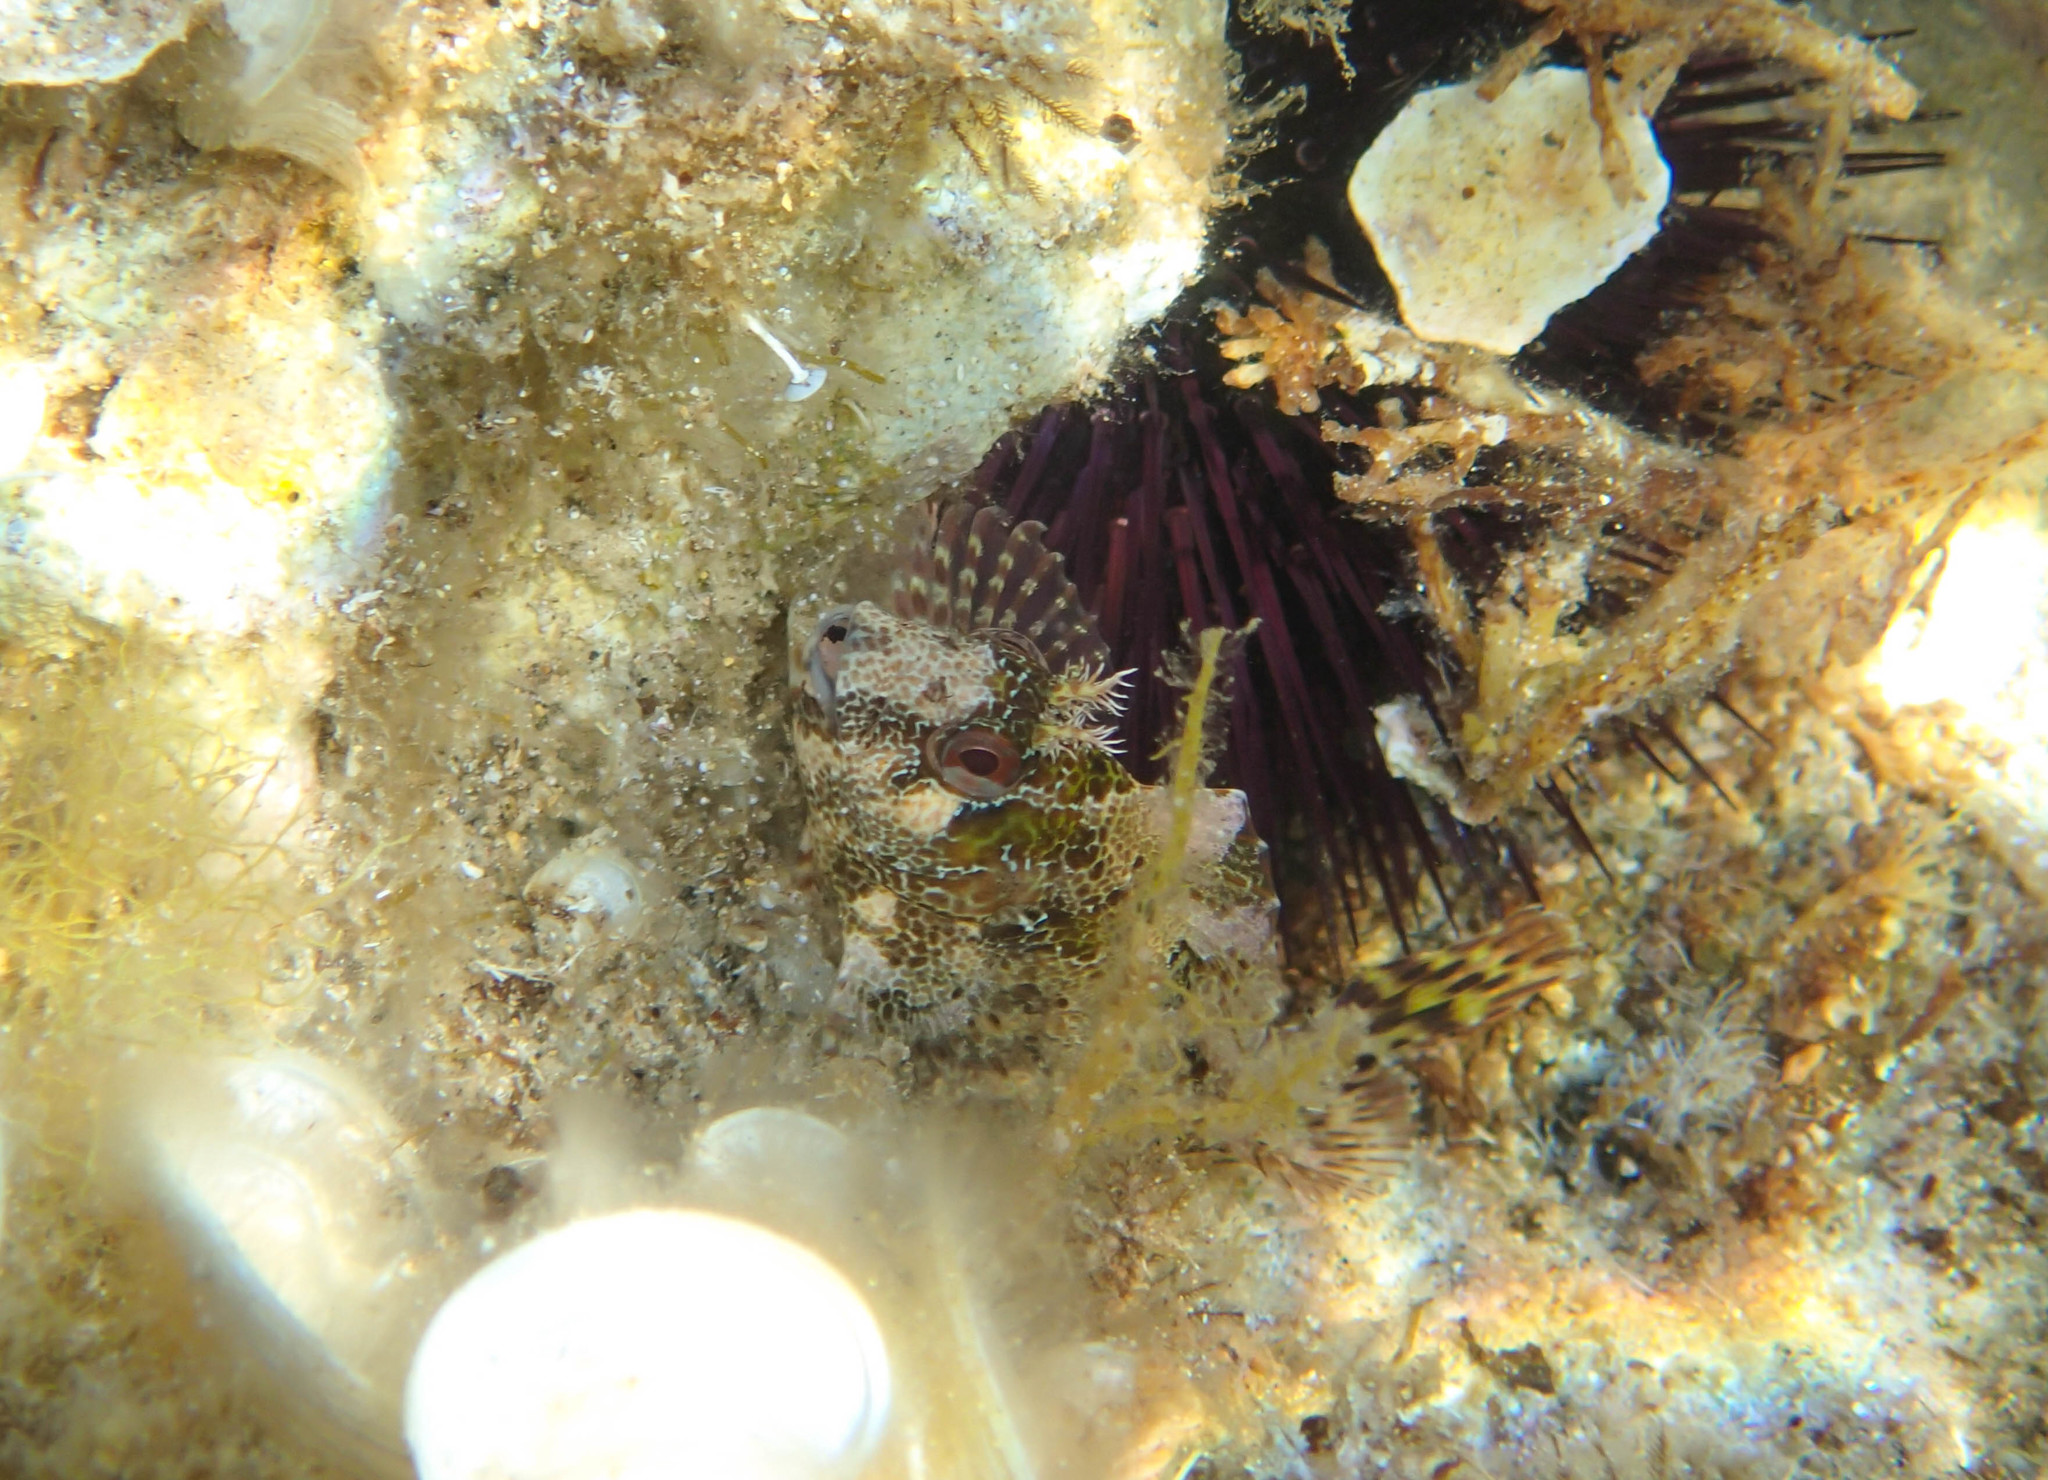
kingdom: Animalia
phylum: Chordata
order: Perciformes
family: Blenniidae
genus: Parablennius
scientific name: Parablennius gattorugine
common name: Tompot blenny
